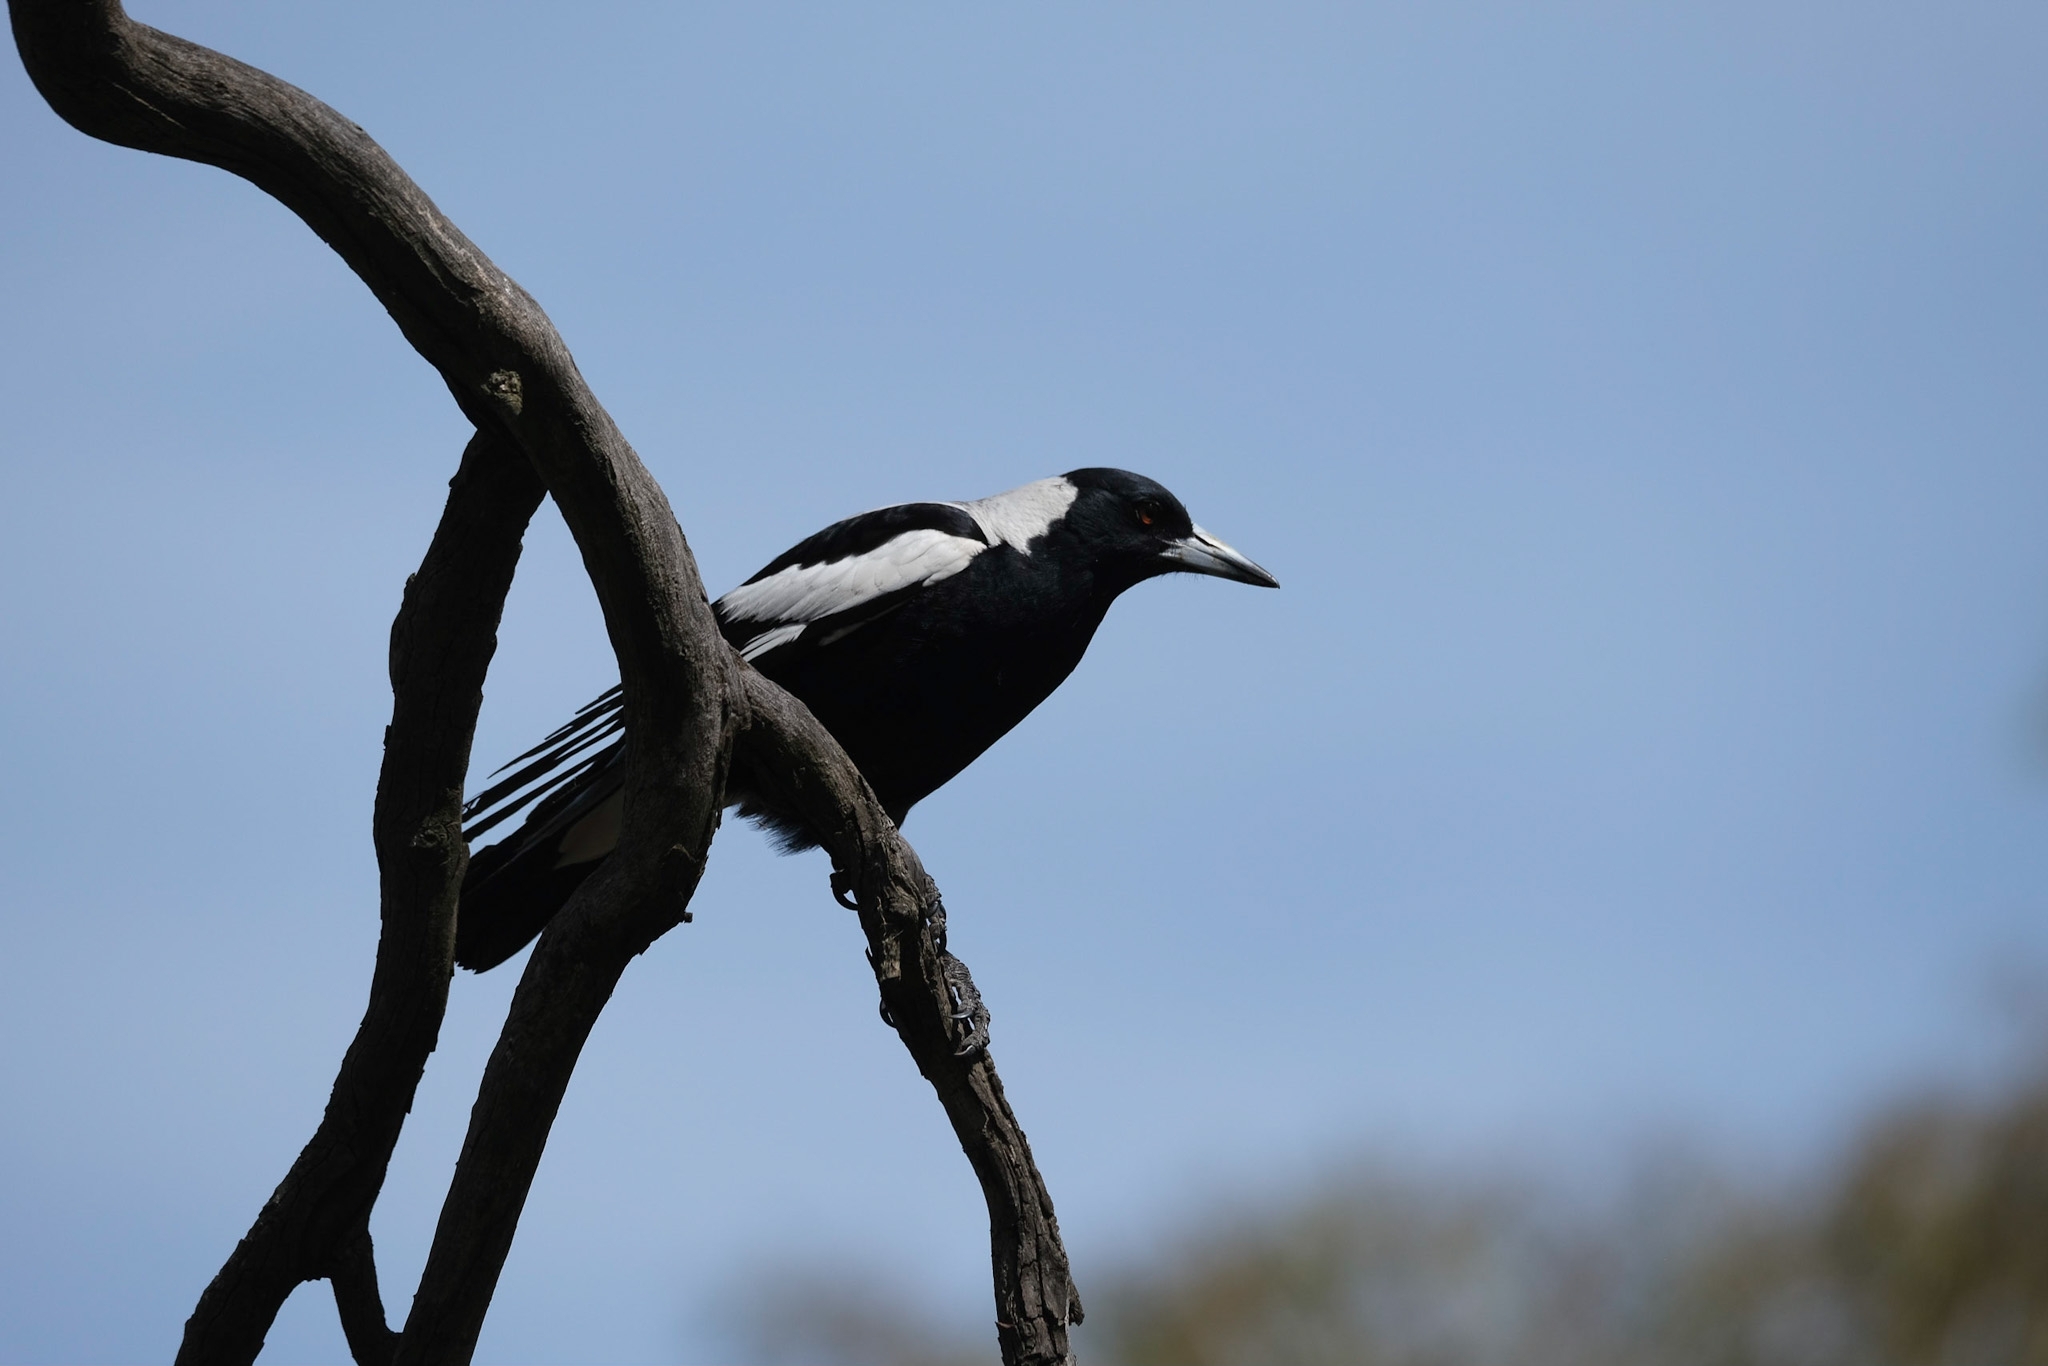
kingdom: Animalia
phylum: Chordata
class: Aves
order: Passeriformes
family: Cracticidae
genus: Gymnorhina
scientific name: Gymnorhina tibicen
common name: Australian magpie
